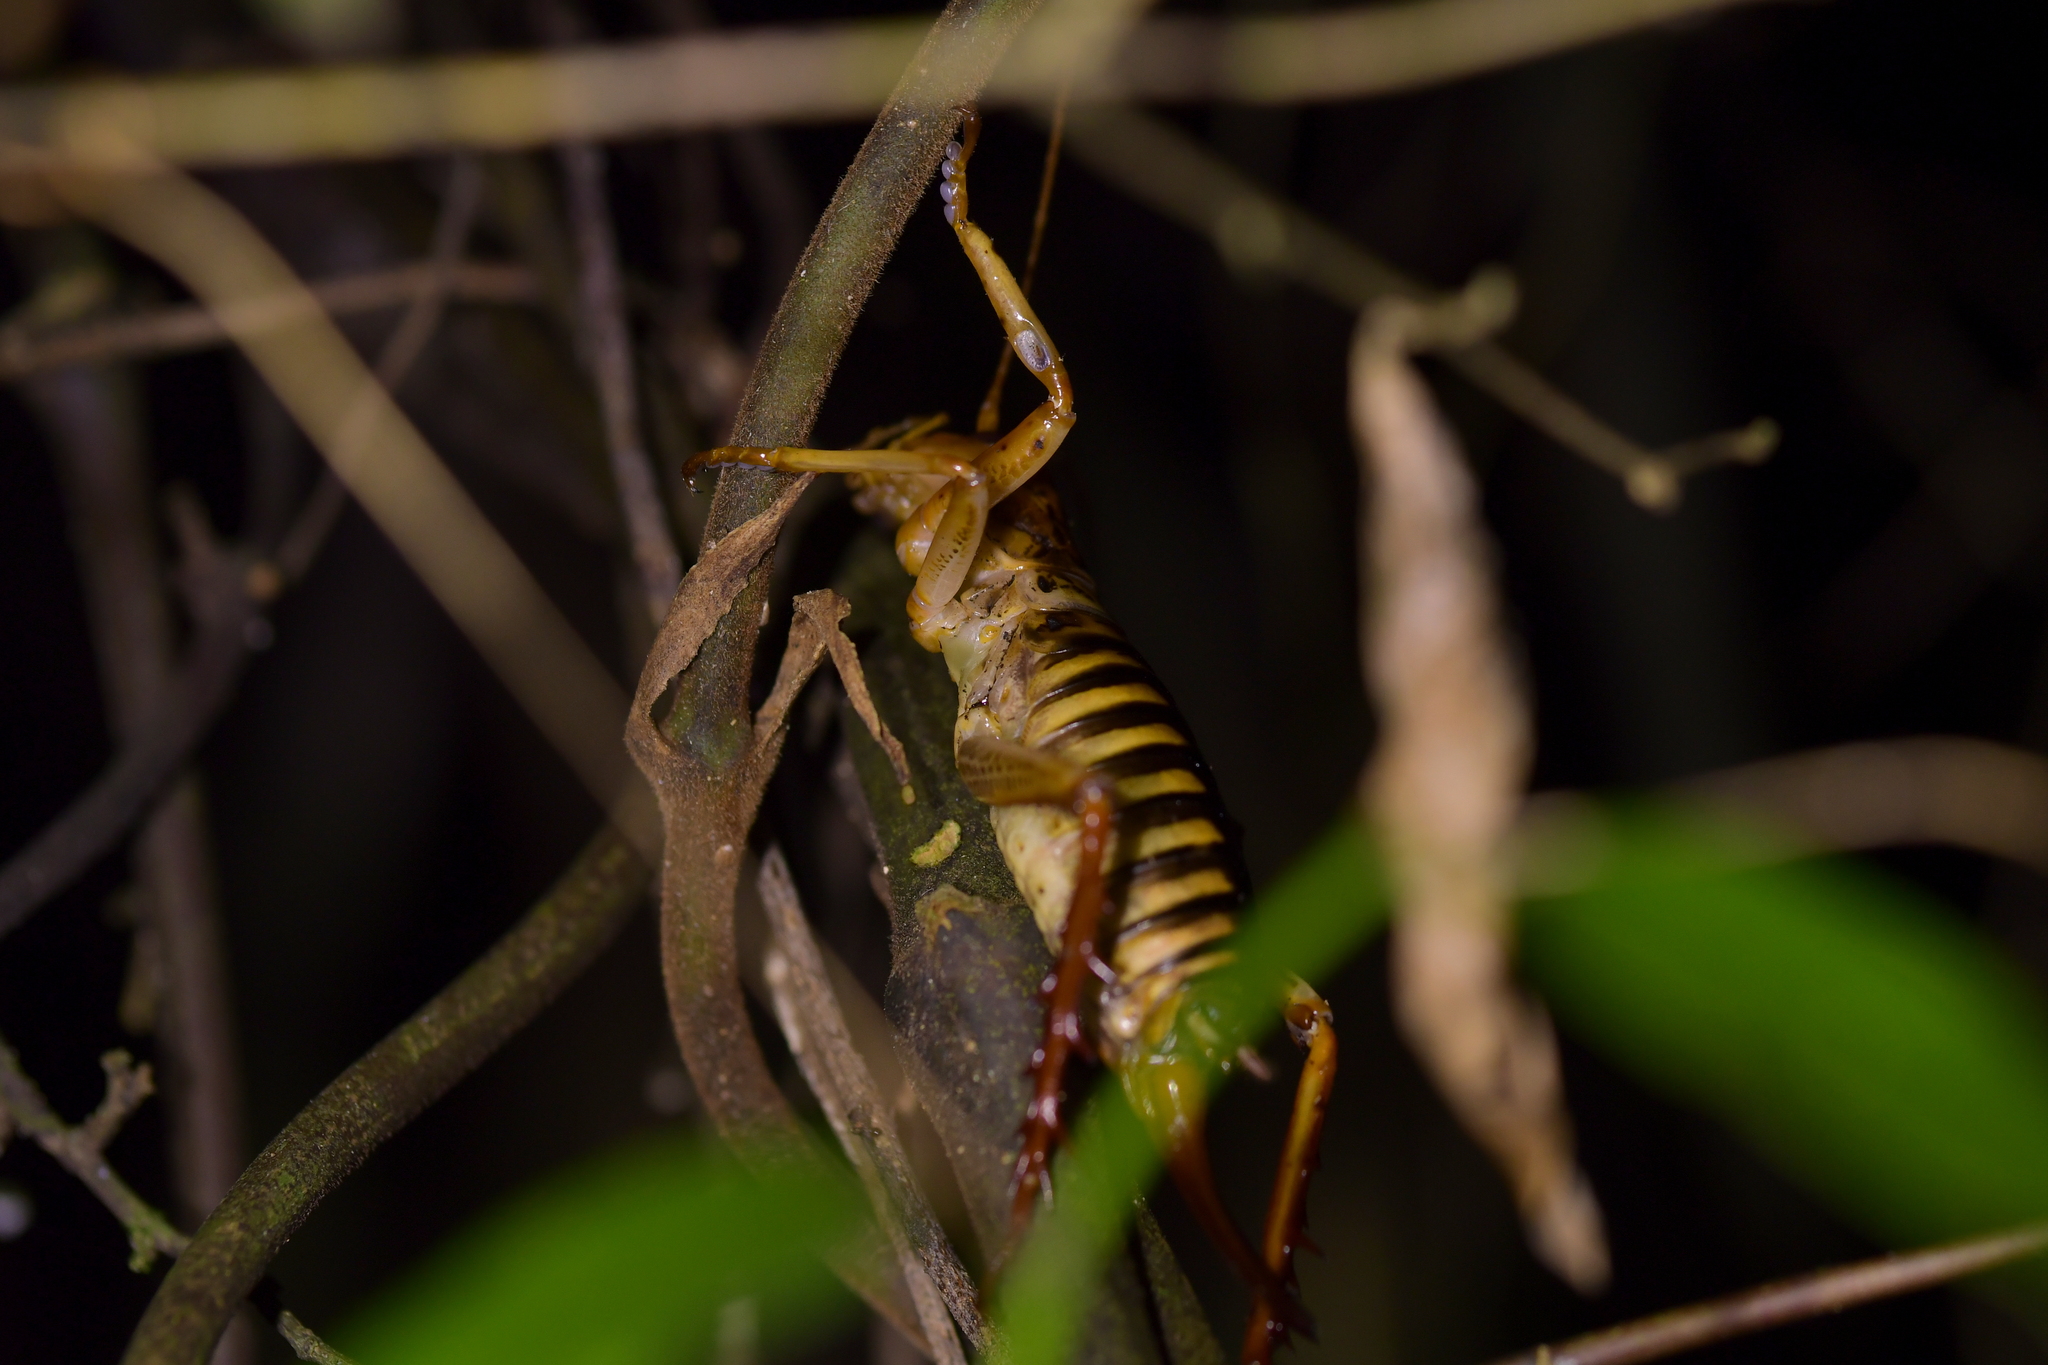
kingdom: Animalia
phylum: Arthropoda
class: Insecta
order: Orthoptera
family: Anostostomatidae
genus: Hemideina
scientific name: Hemideina crassidens
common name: Wellington tree weta
